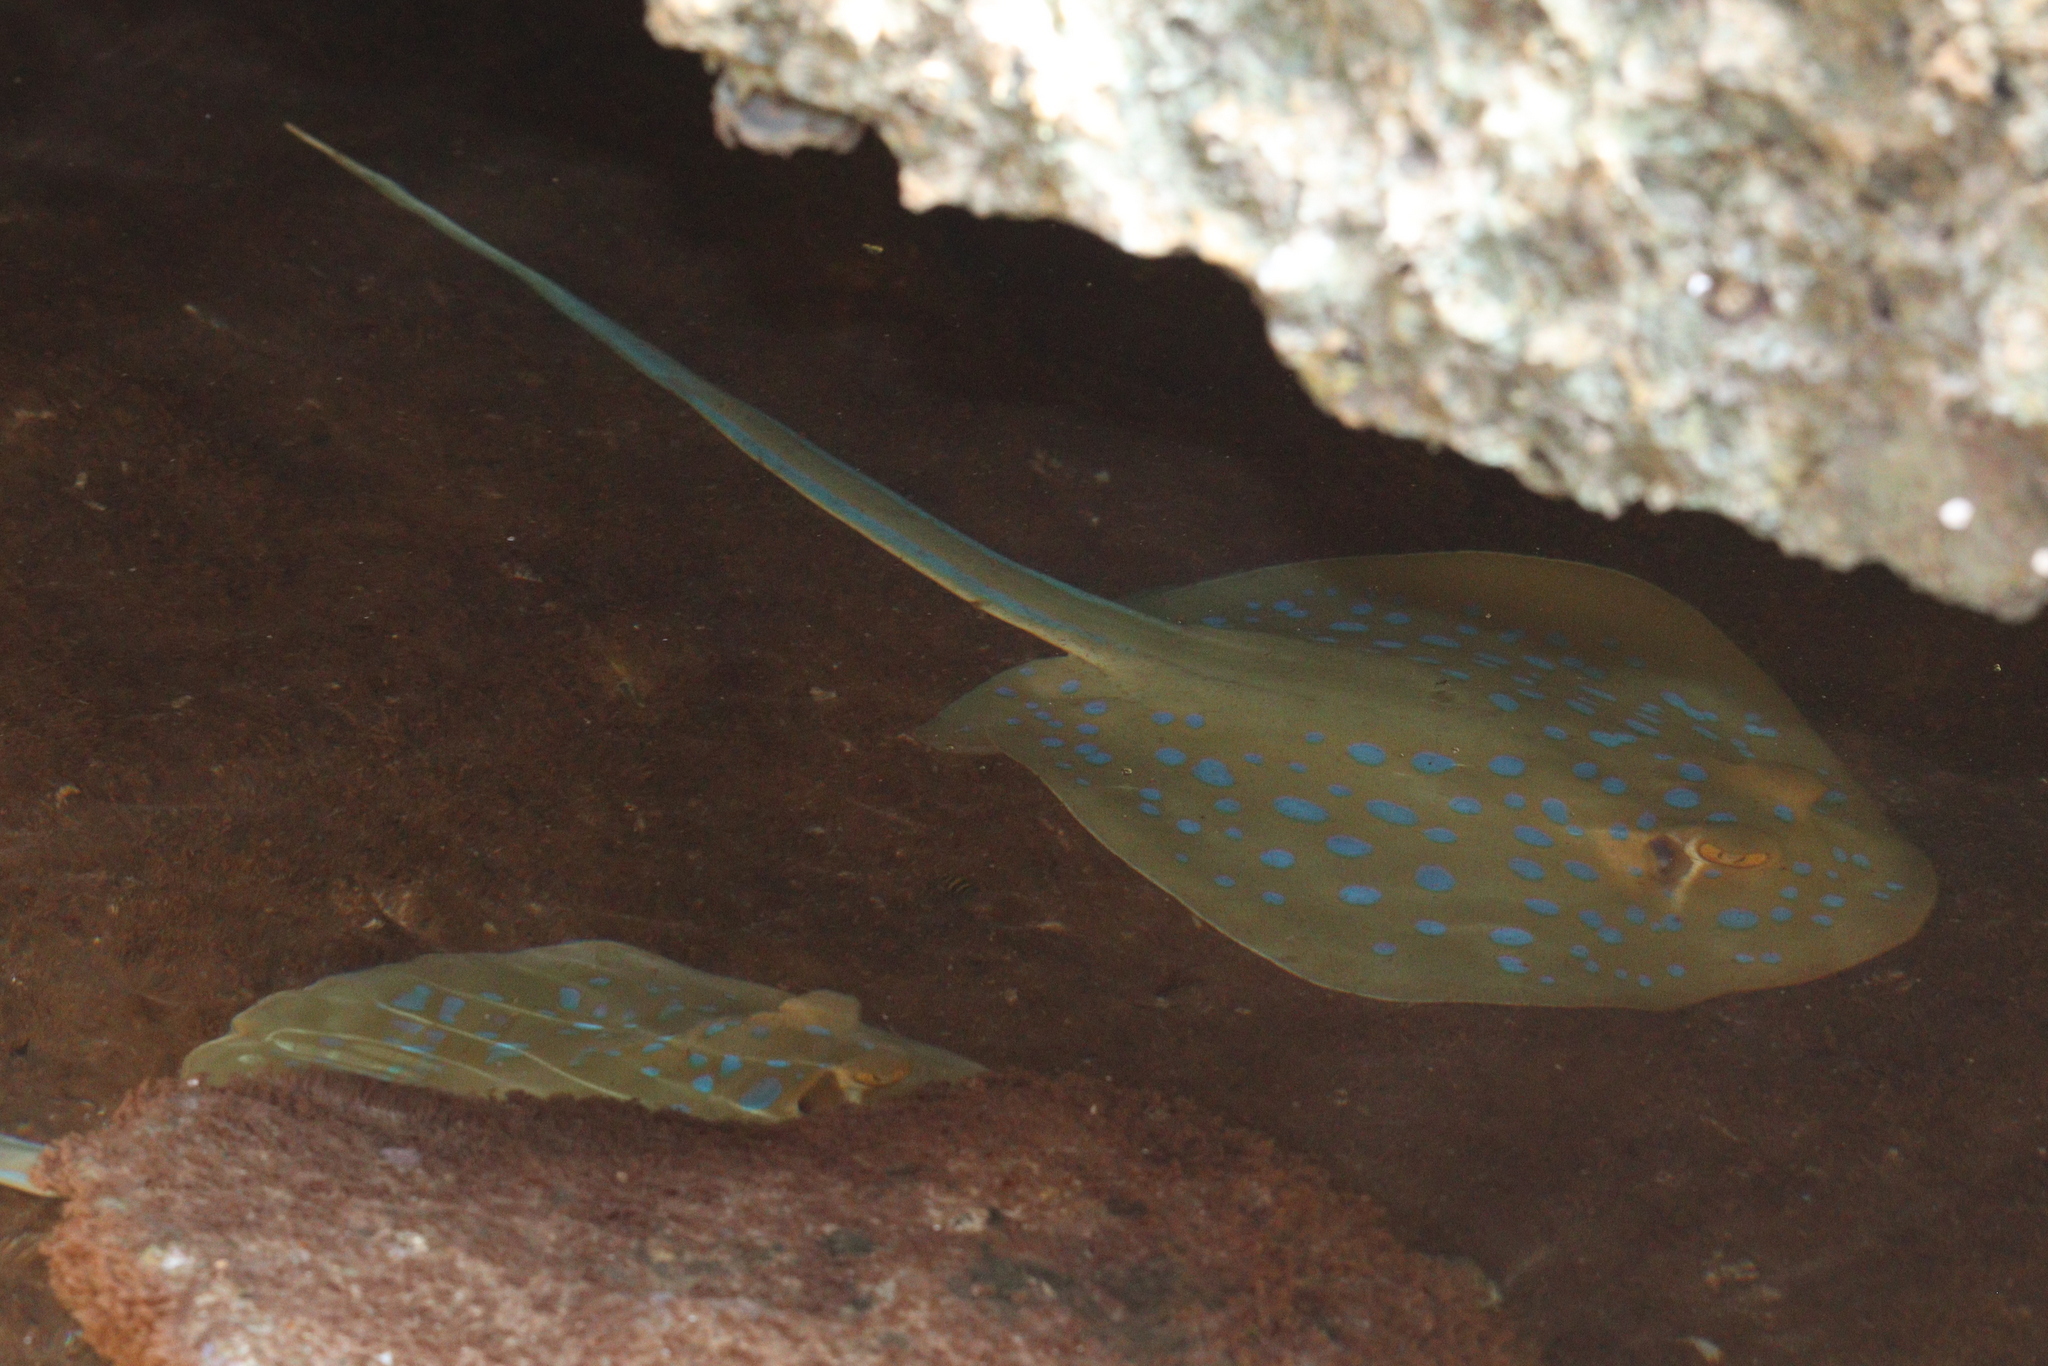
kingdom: Animalia
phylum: Chordata
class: Elasmobranchii
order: Myliobatiformes
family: Dasyatidae
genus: Taeniura
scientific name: Taeniura lymma
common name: Bluespotted ribbontail ray
